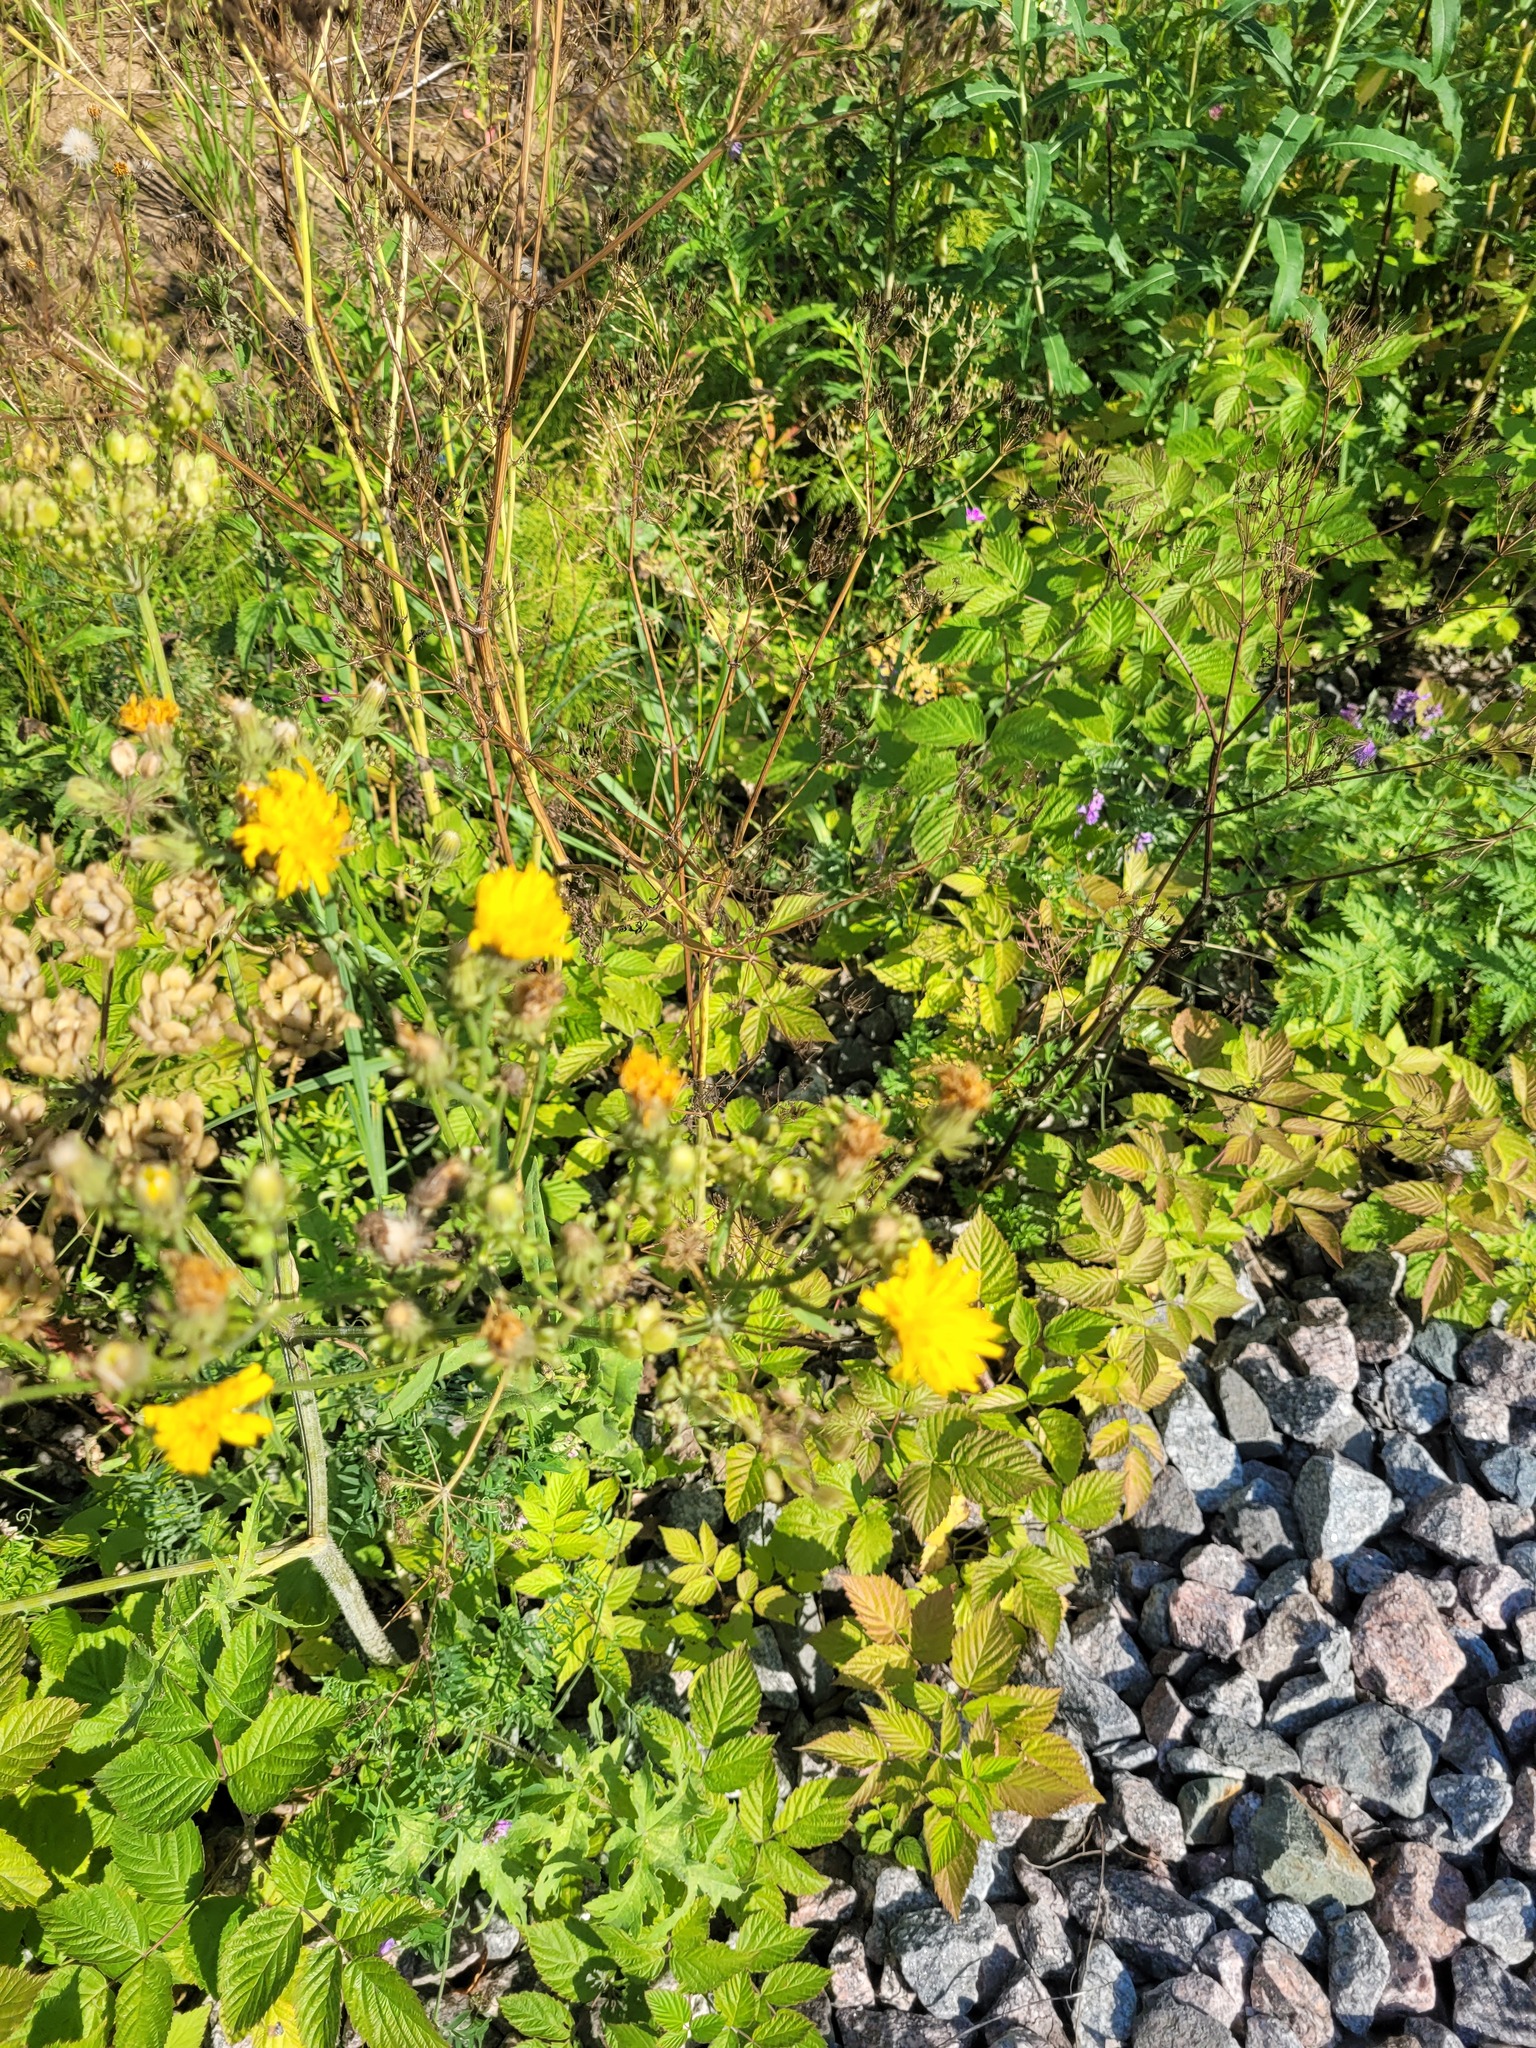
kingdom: Plantae
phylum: Tracheophyta
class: Magnoliopsida
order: Asterales
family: Asteraceae
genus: Picris
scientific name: Picris hieracioides
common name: Hawkweed oxtongue
